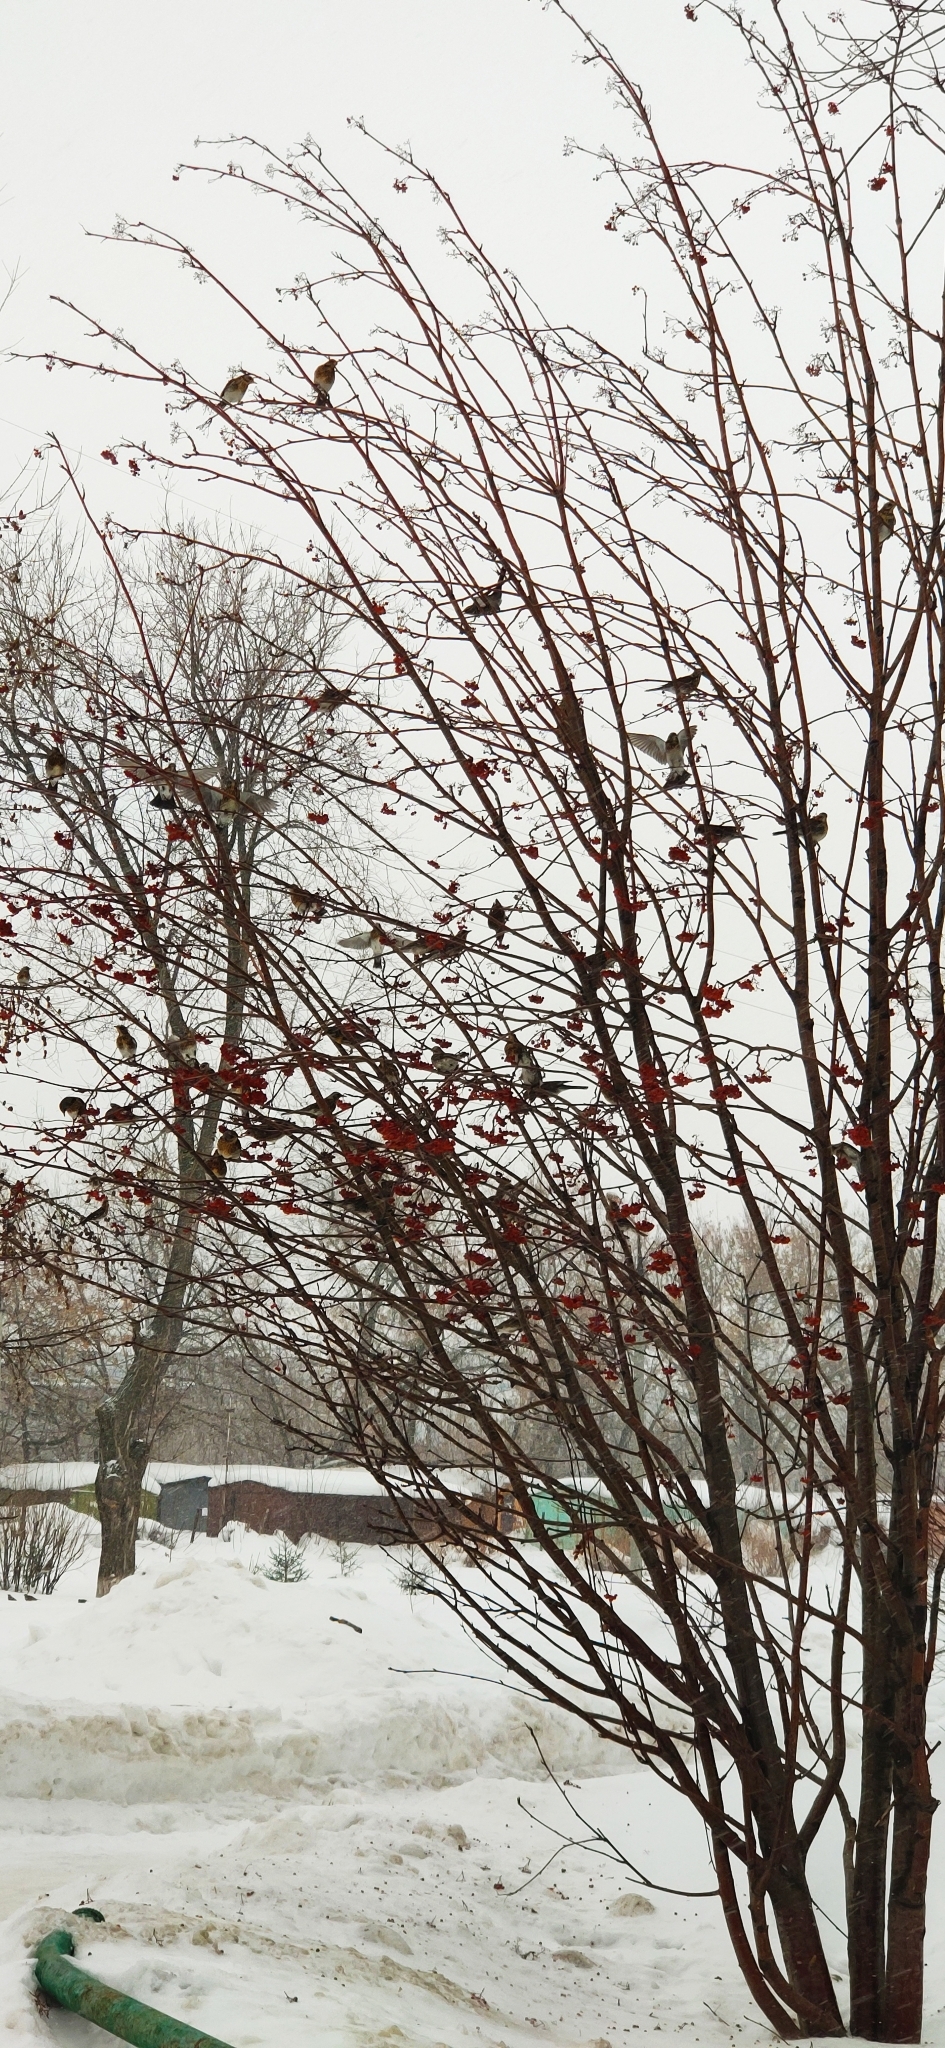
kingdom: Animalia
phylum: Chordata
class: Aves
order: Passeriformes
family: Turdidae
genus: Turdus
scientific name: Turdus pilaris
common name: Fieldfare
